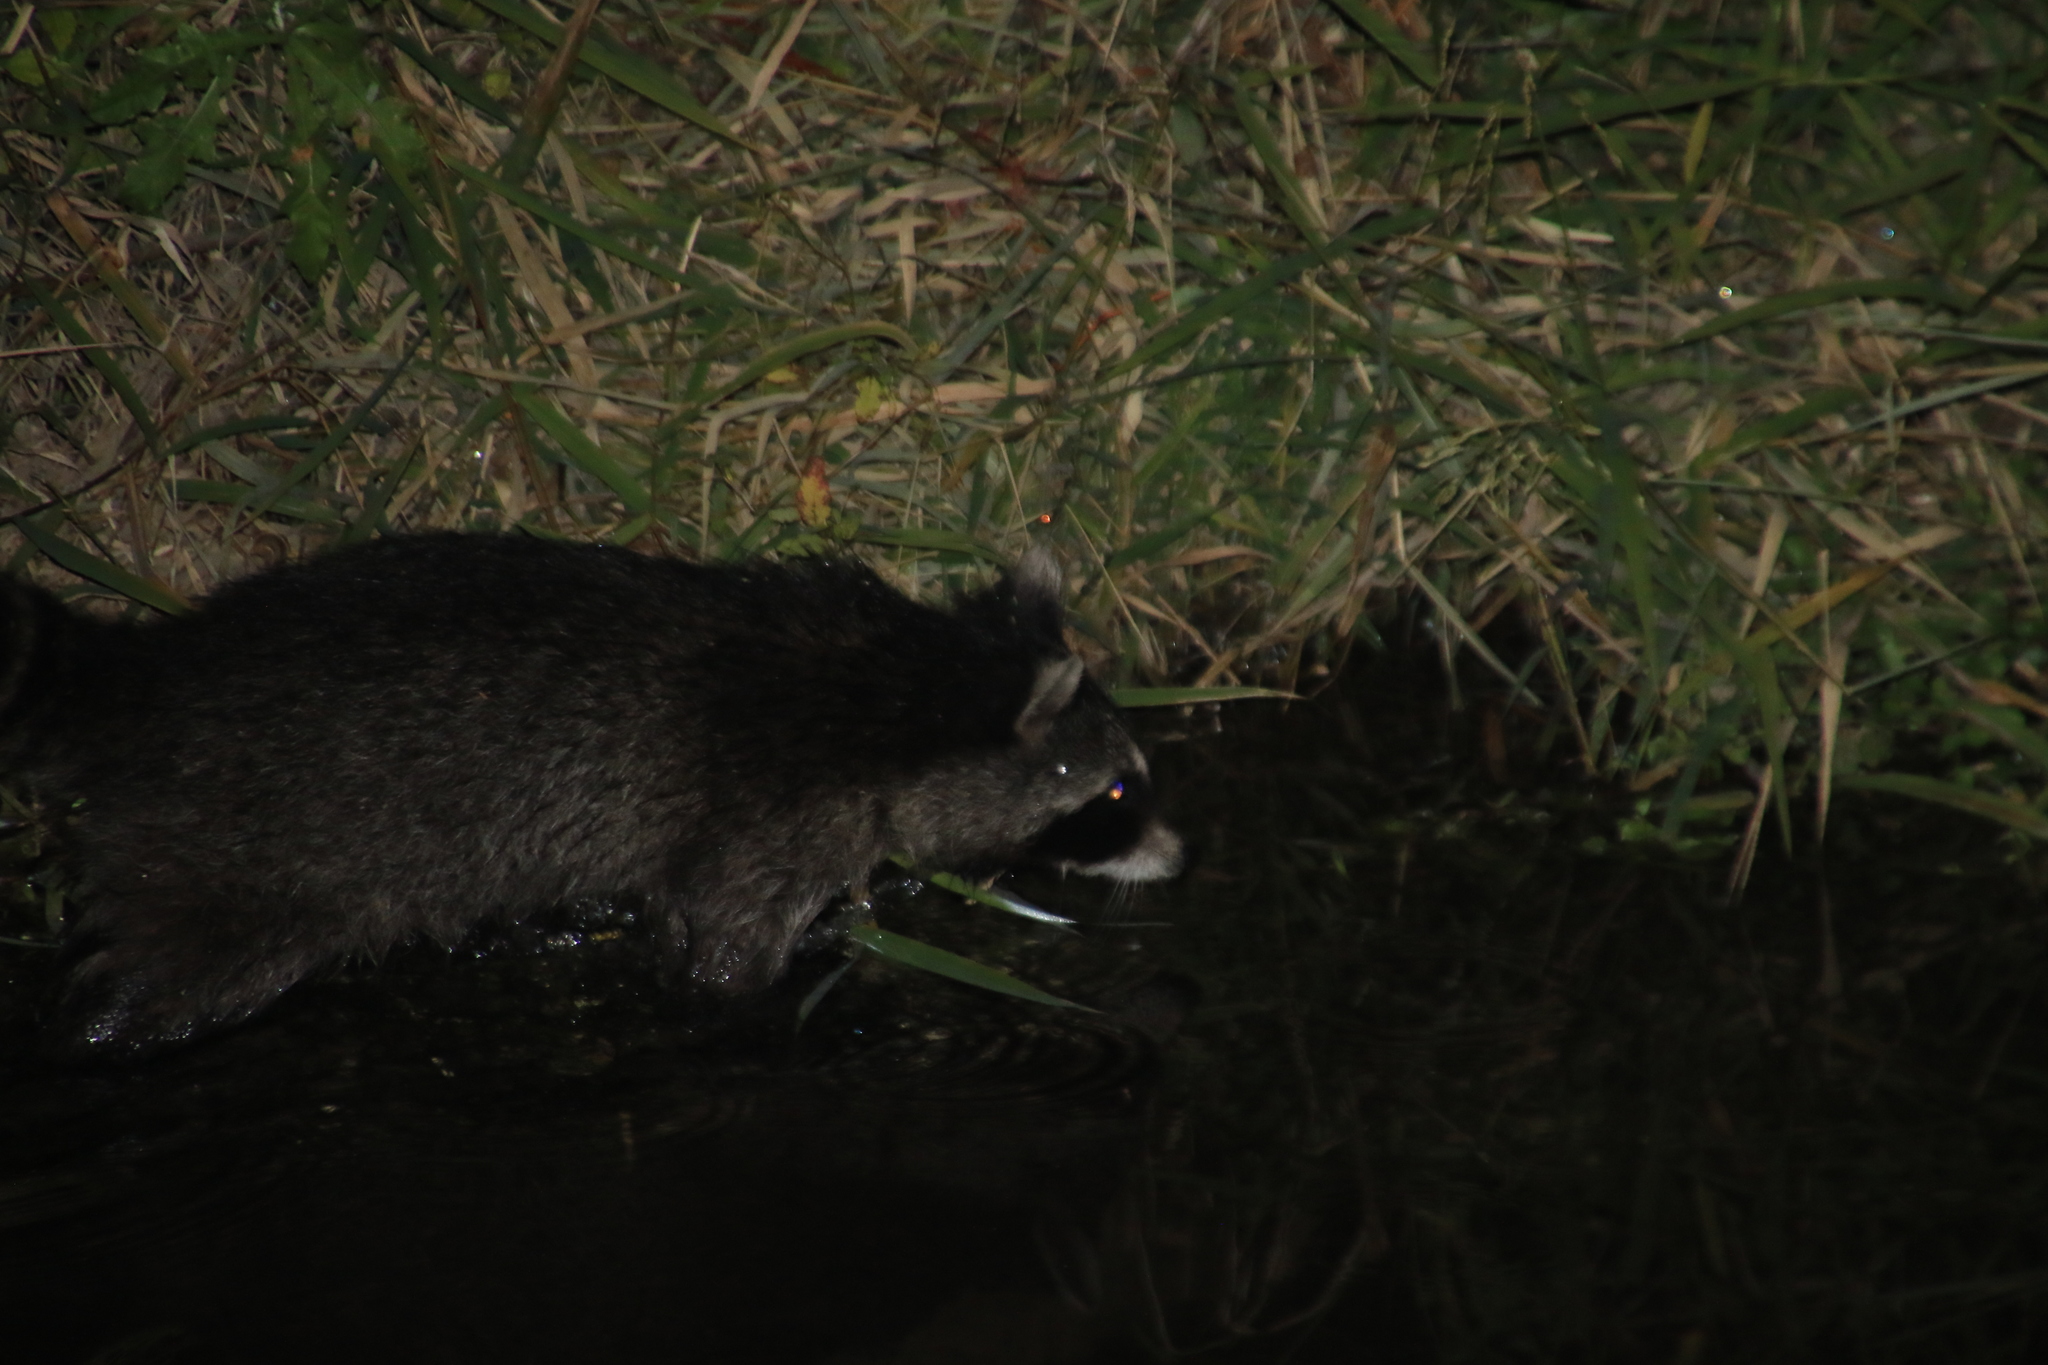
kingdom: Animalia
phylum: Chordata
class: Mammalia
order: Carnivora
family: Procyonidae
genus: Procyon
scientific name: Procyon lotor
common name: Raccoon
